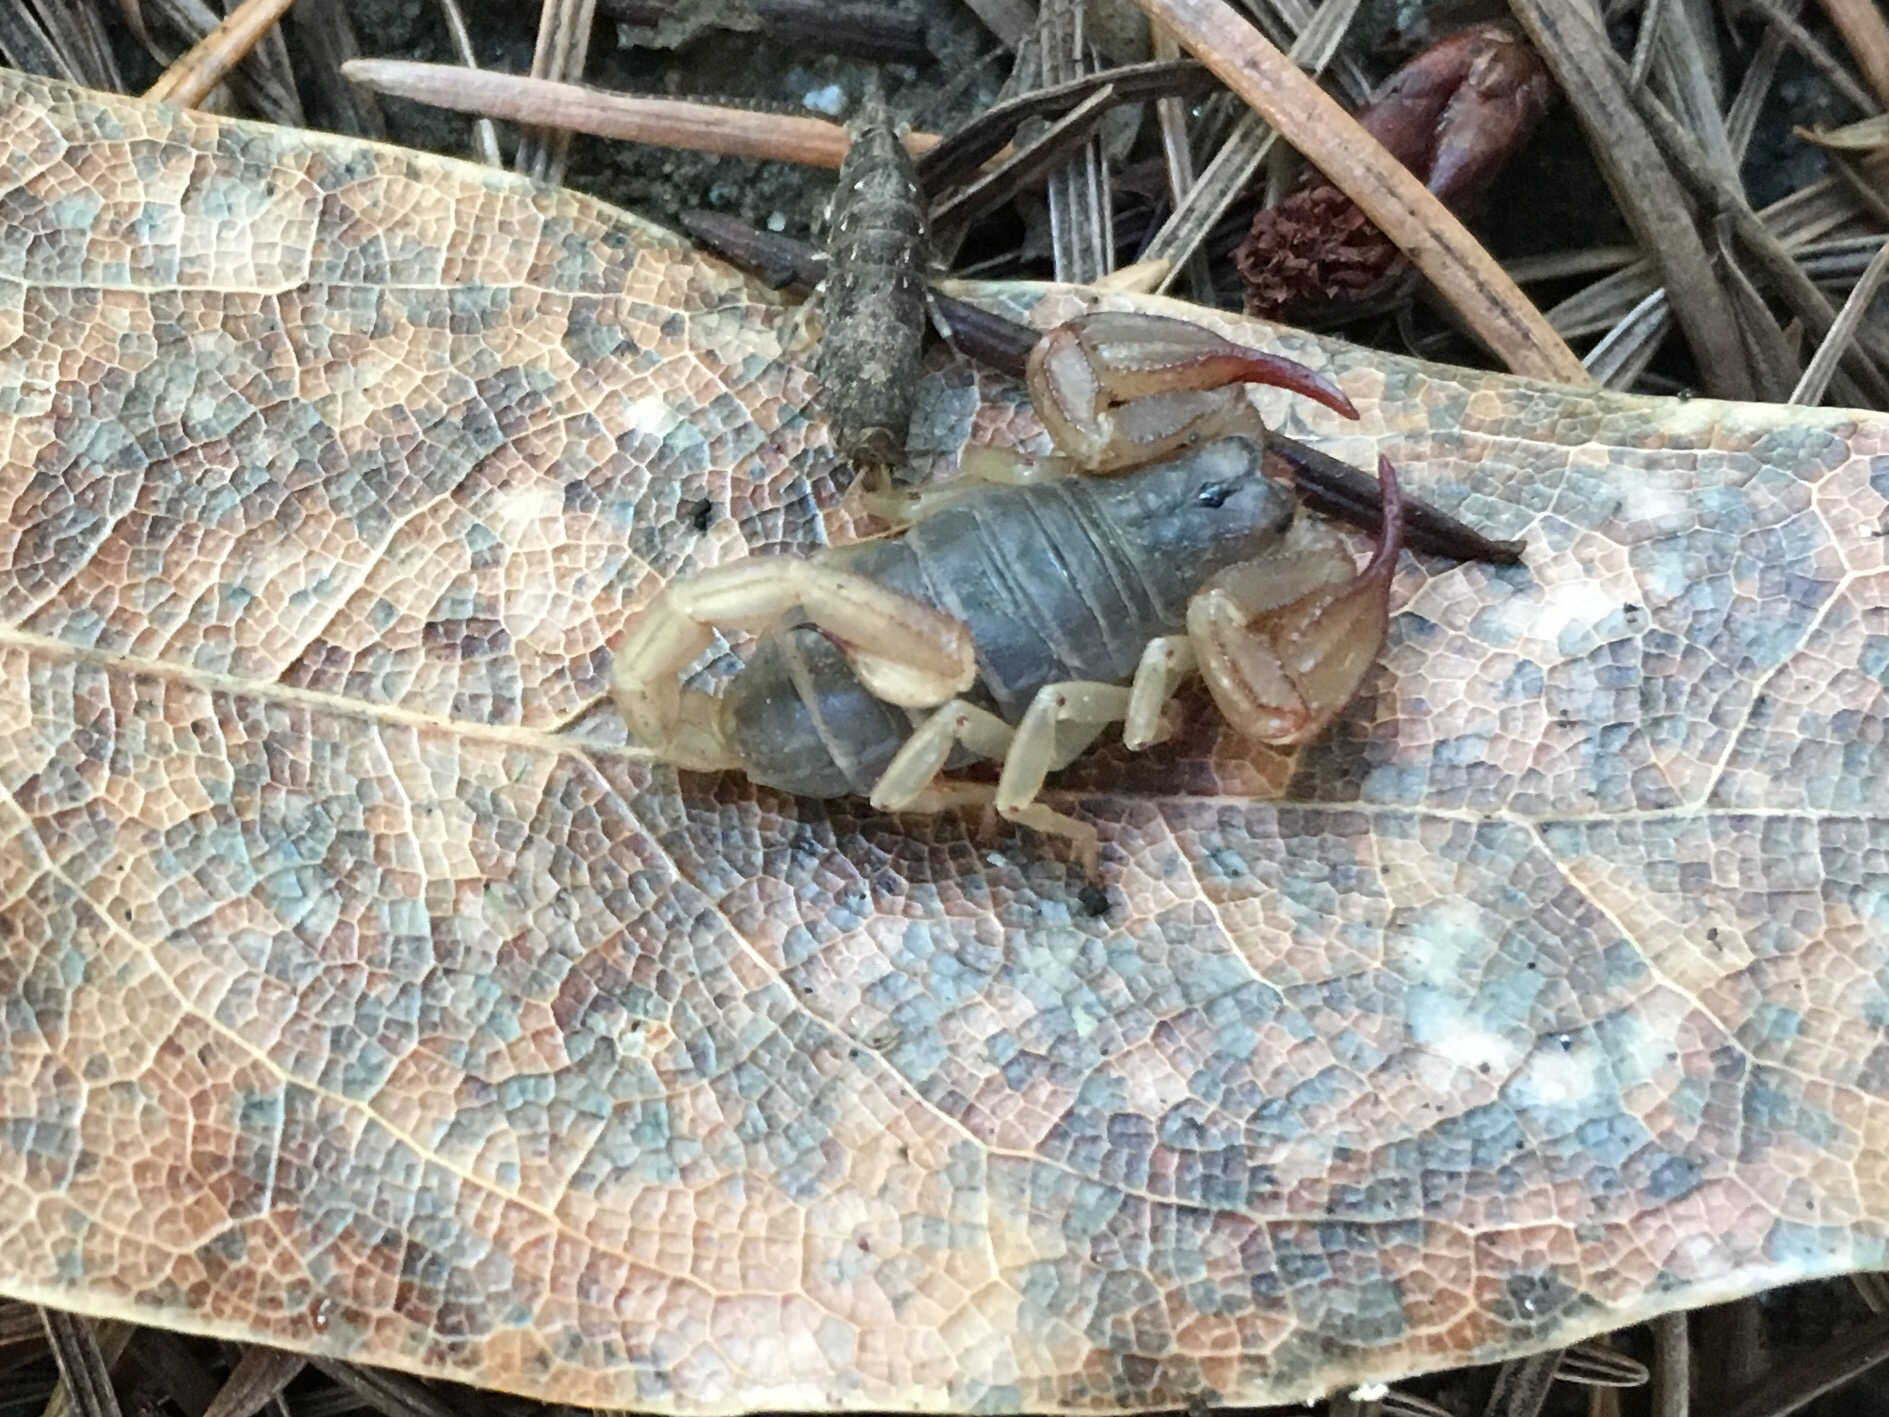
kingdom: Animalia
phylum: Arthropoda
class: Arachnida
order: Scorpiones
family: Chactidae
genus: Uroctonus
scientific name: Uroctonus mordax
